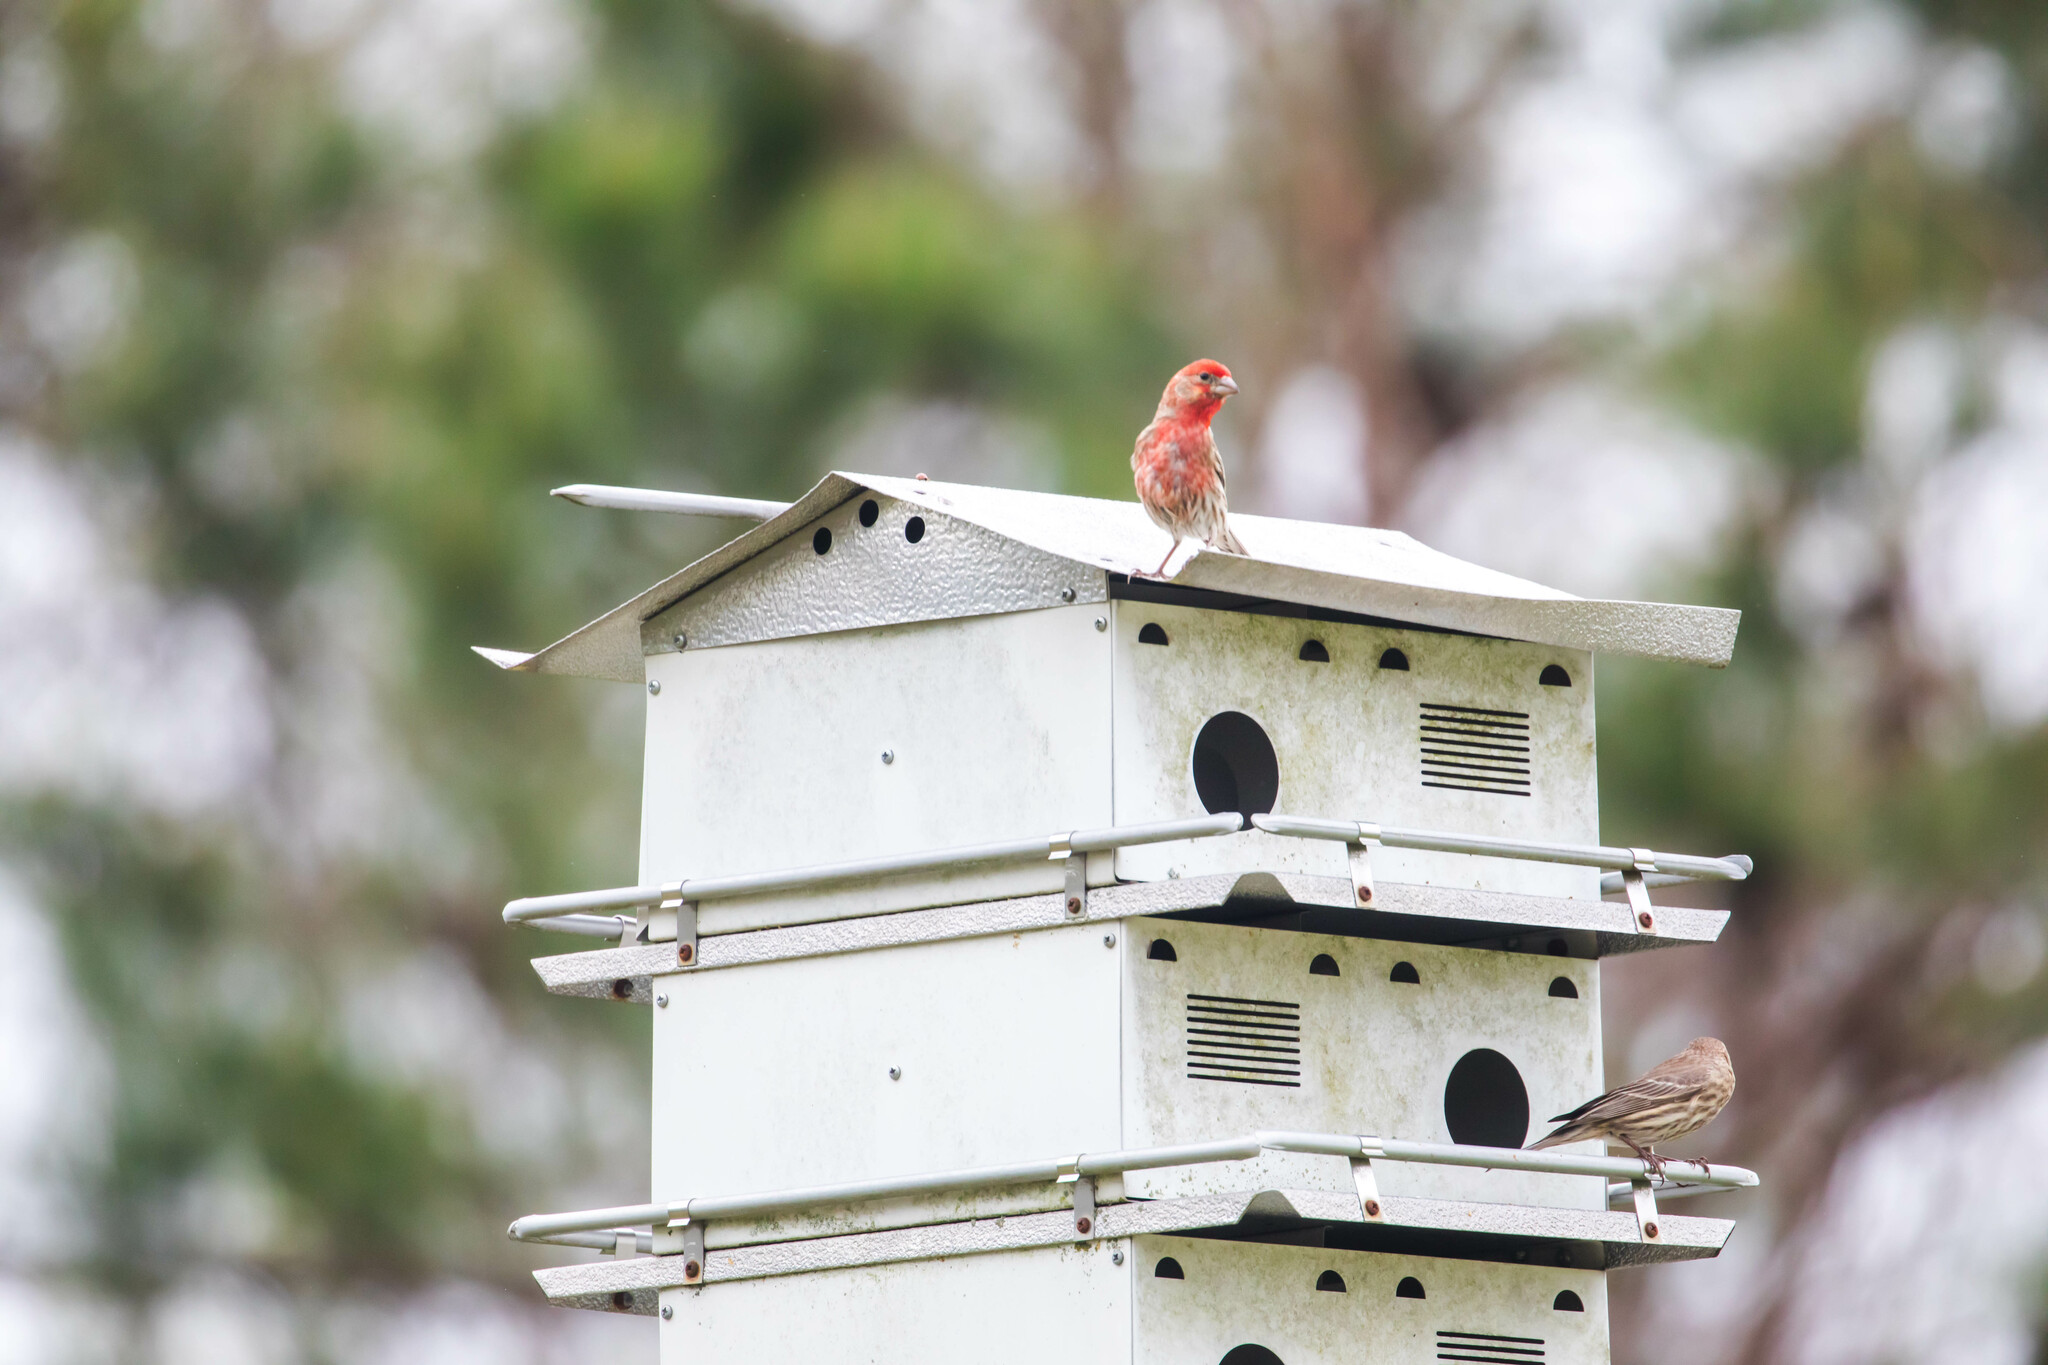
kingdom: Animalia
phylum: Chordata
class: Aves
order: Passeriformes
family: Fringillidae
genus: Haemorhous
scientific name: Haemorhous mexicanus
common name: House finch
